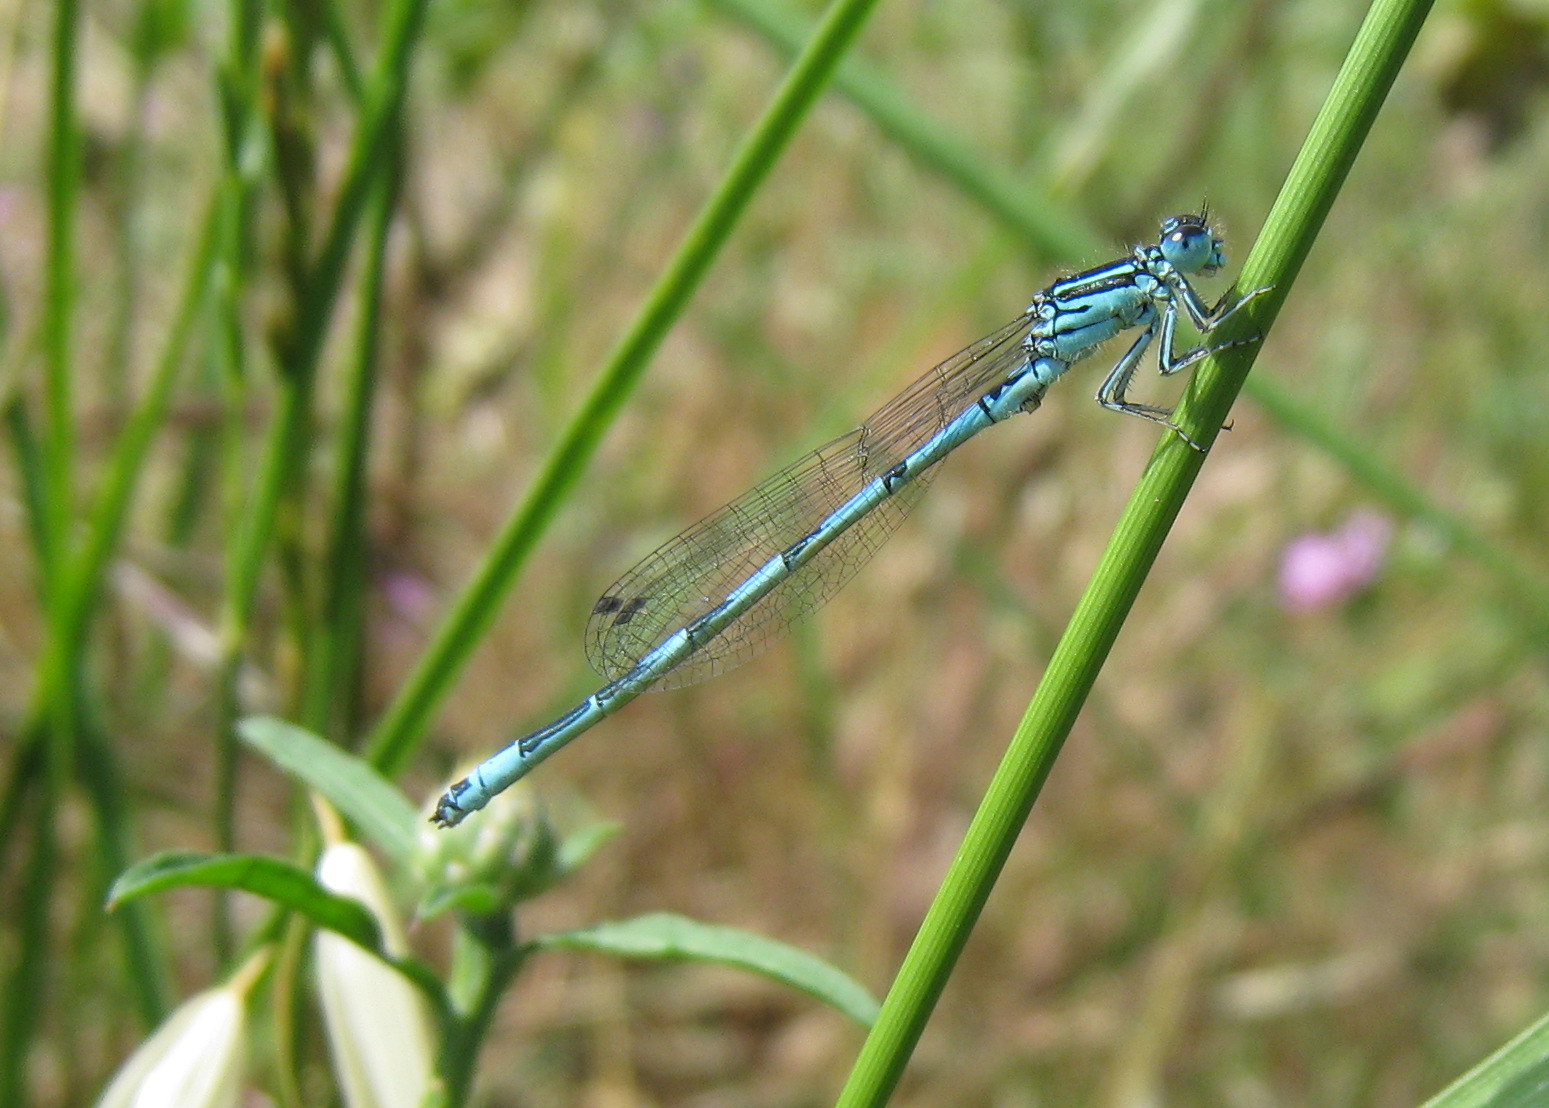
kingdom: Animalia
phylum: Arthropoda
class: Insecta
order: Odonata
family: Coenagrionidae
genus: Coenagrion
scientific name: Coenagrion mercuriale
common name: Southern damselfly
